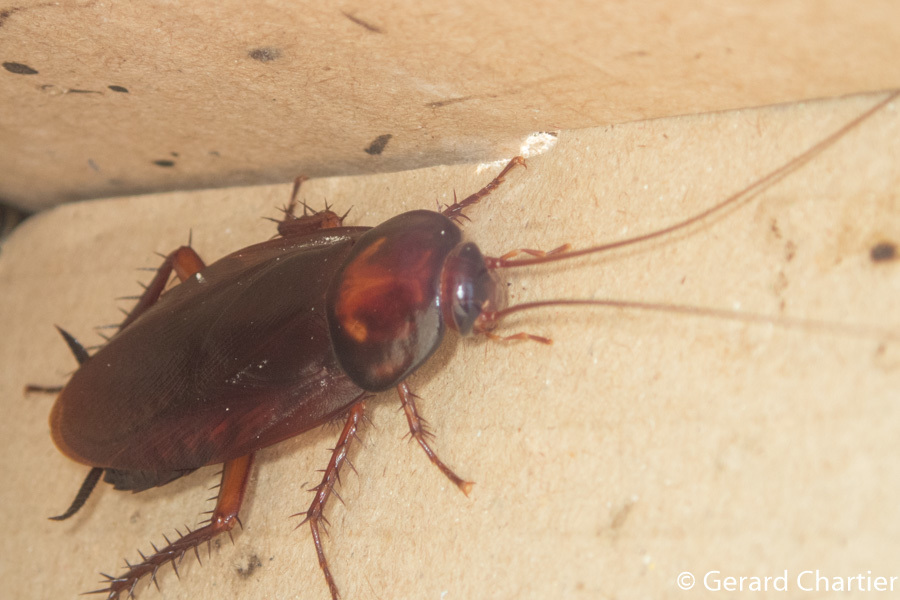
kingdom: Animalia
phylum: Arthropoda
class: Insecta
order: Blattodea
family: Blattidae
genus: Periplaneta
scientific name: Periplaneta brunnea
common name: Brown cockroach
